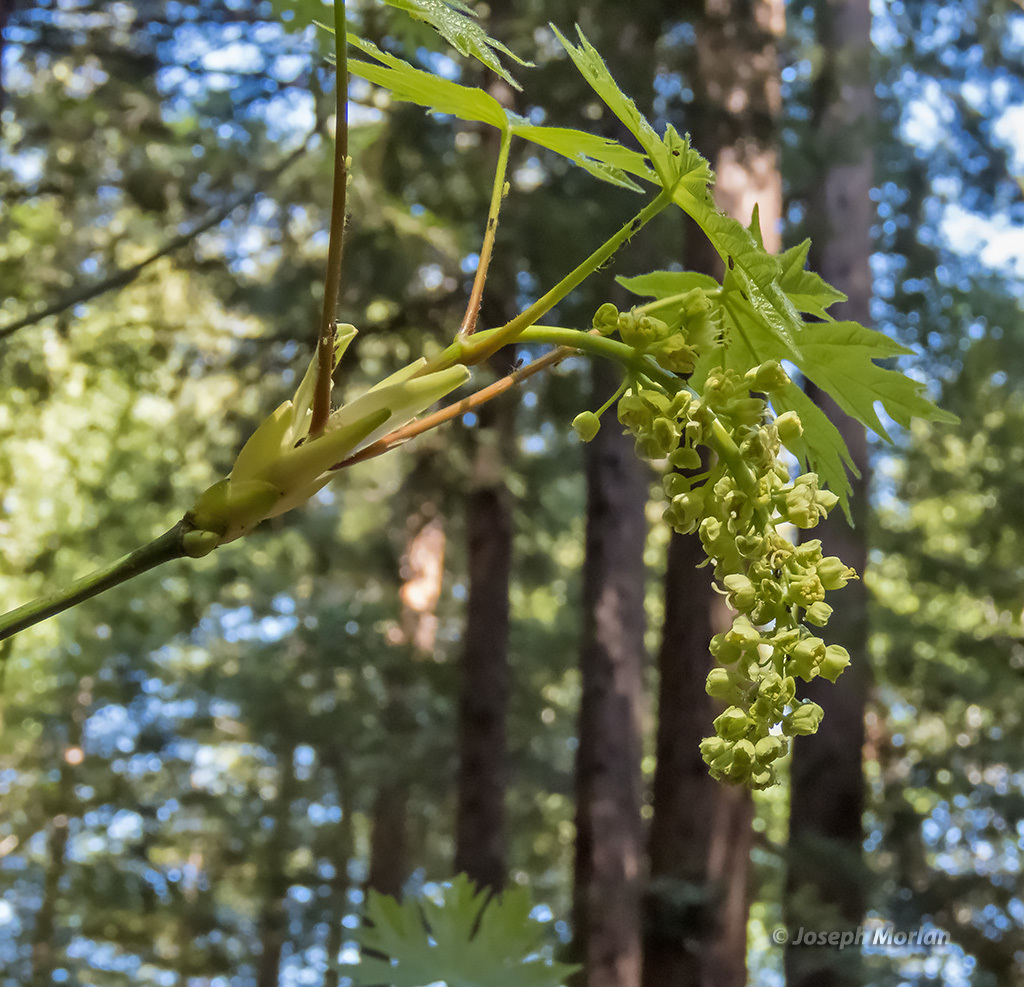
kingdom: Plantae
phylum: Tracheophyta
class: Magnoliopsida
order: Sapindales
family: Sapindaceae
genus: Acer
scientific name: Acer macrophyllum
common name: Oregon maple
